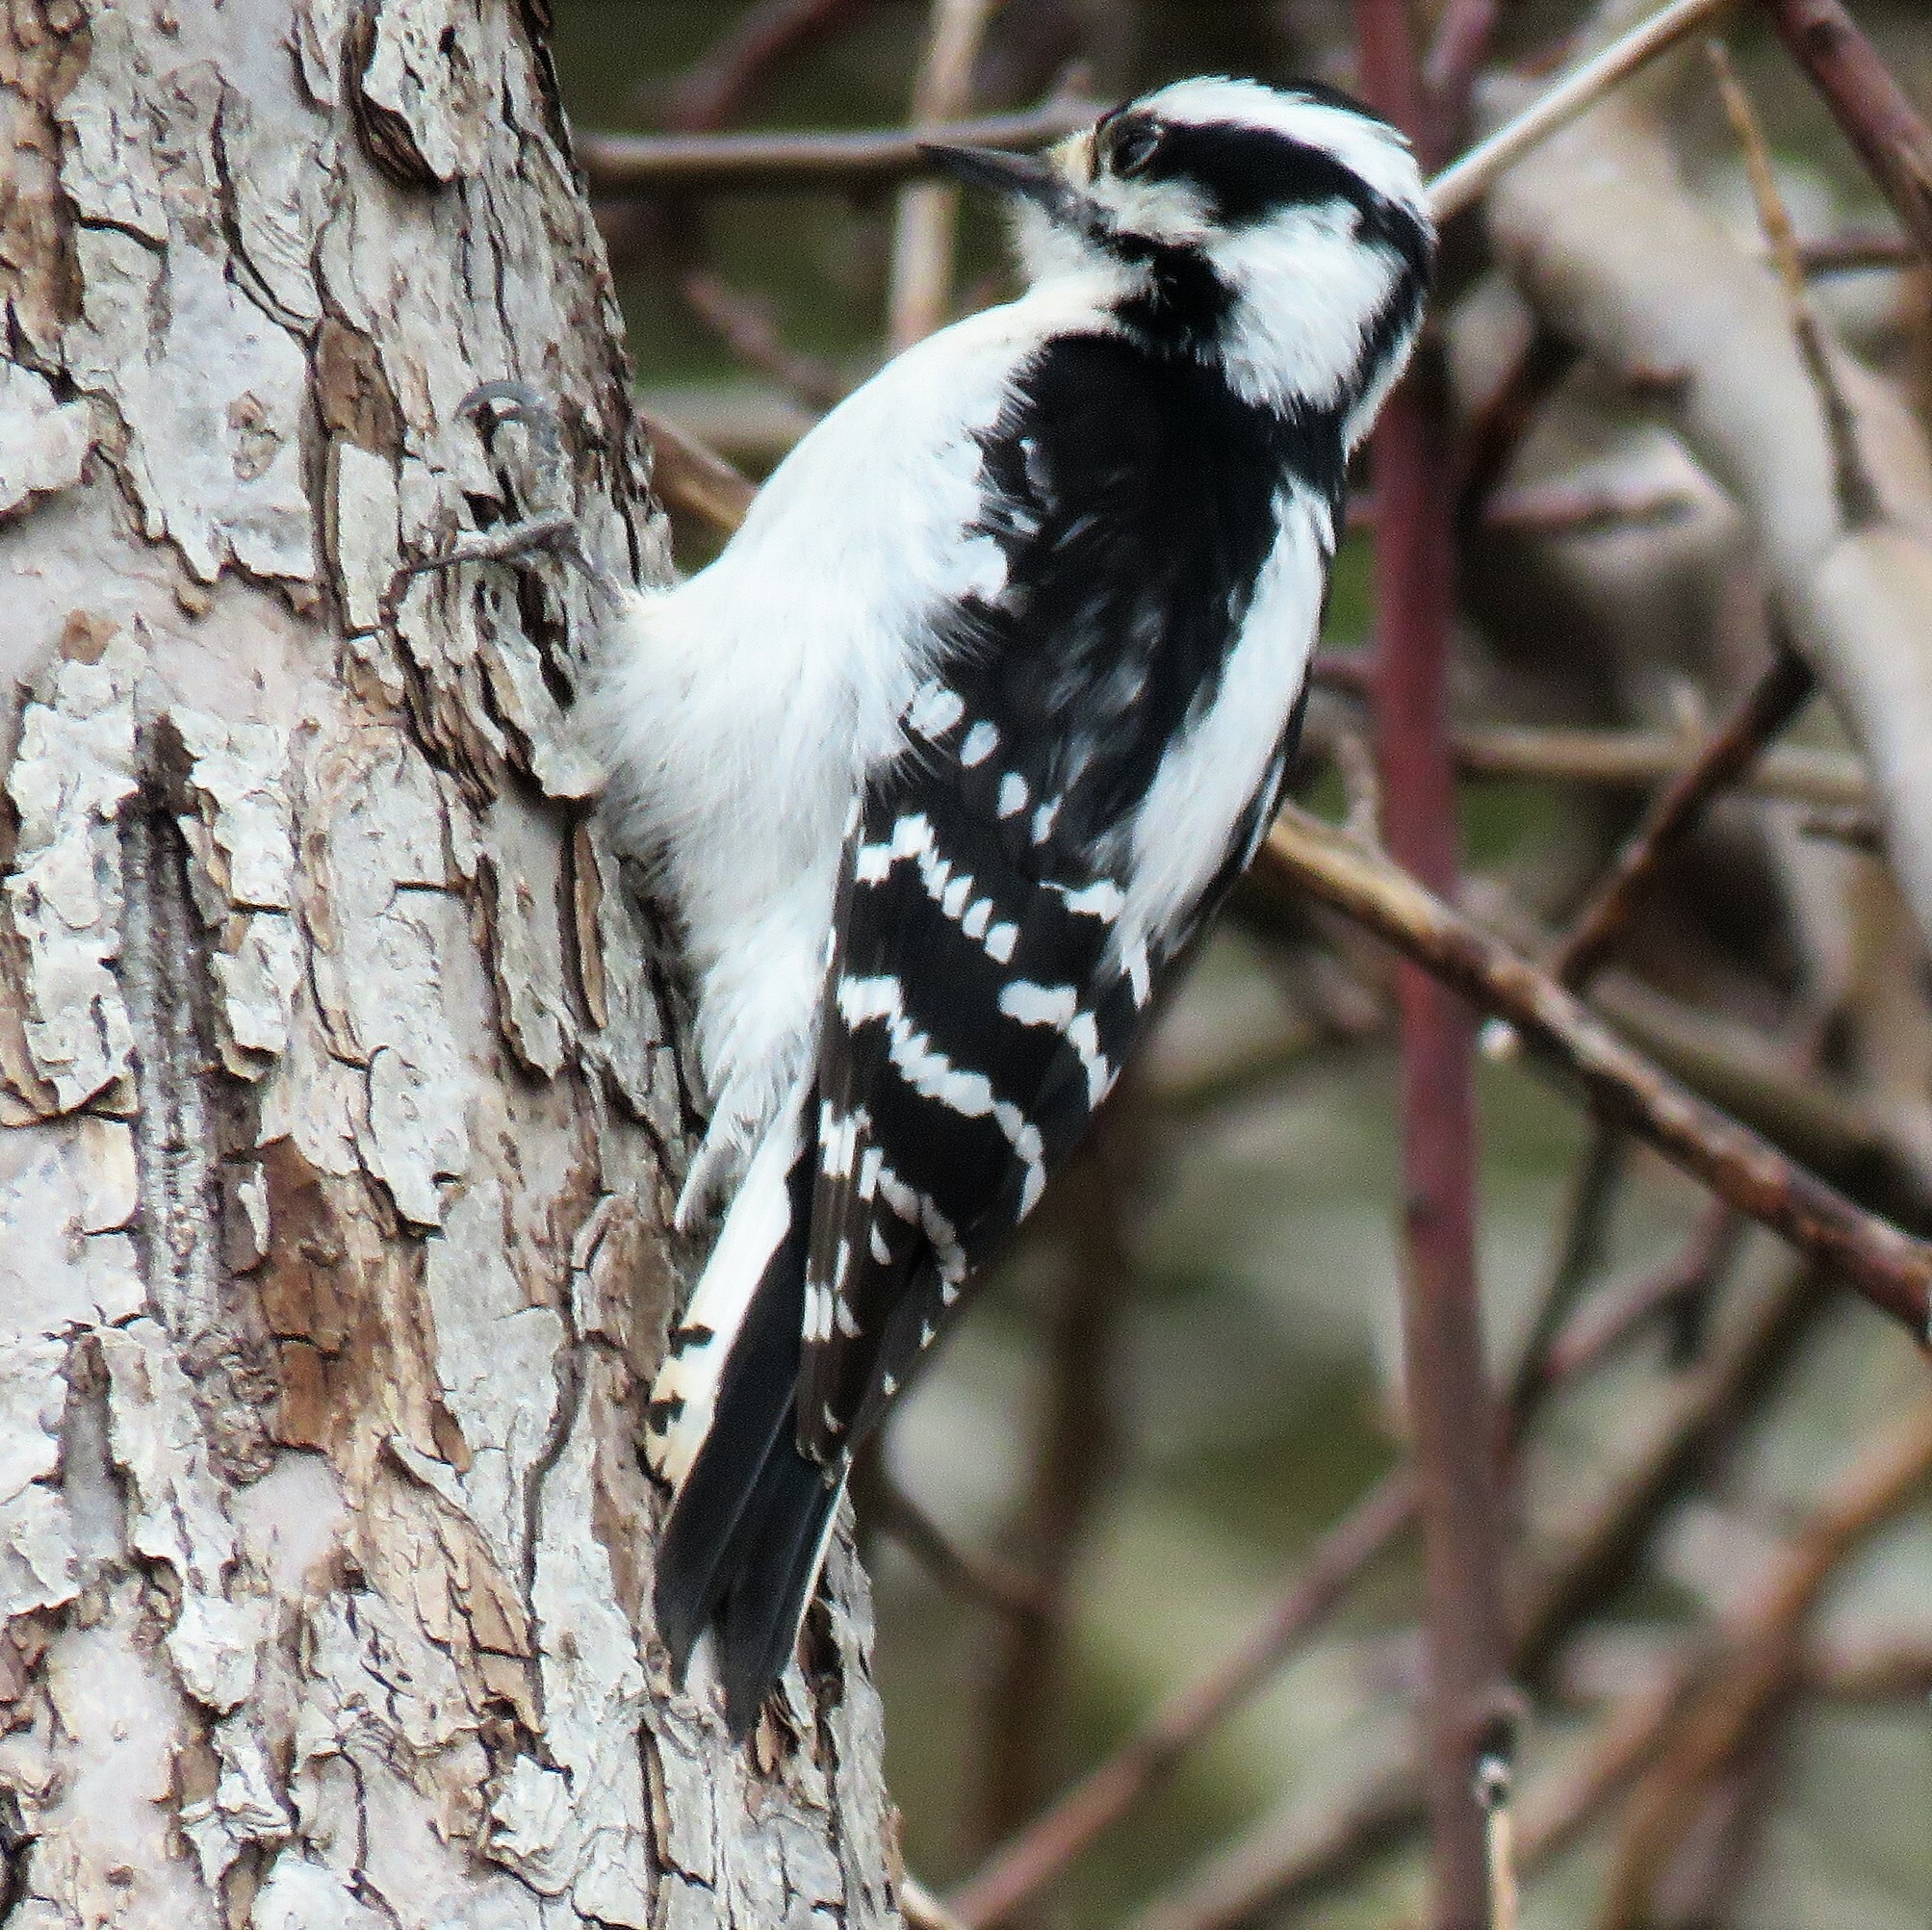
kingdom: Animalia
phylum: Chordata
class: Aves
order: Piciformes
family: Picidae
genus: Dryobates
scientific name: Dryobates pubescens
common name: Downy woodpecker
